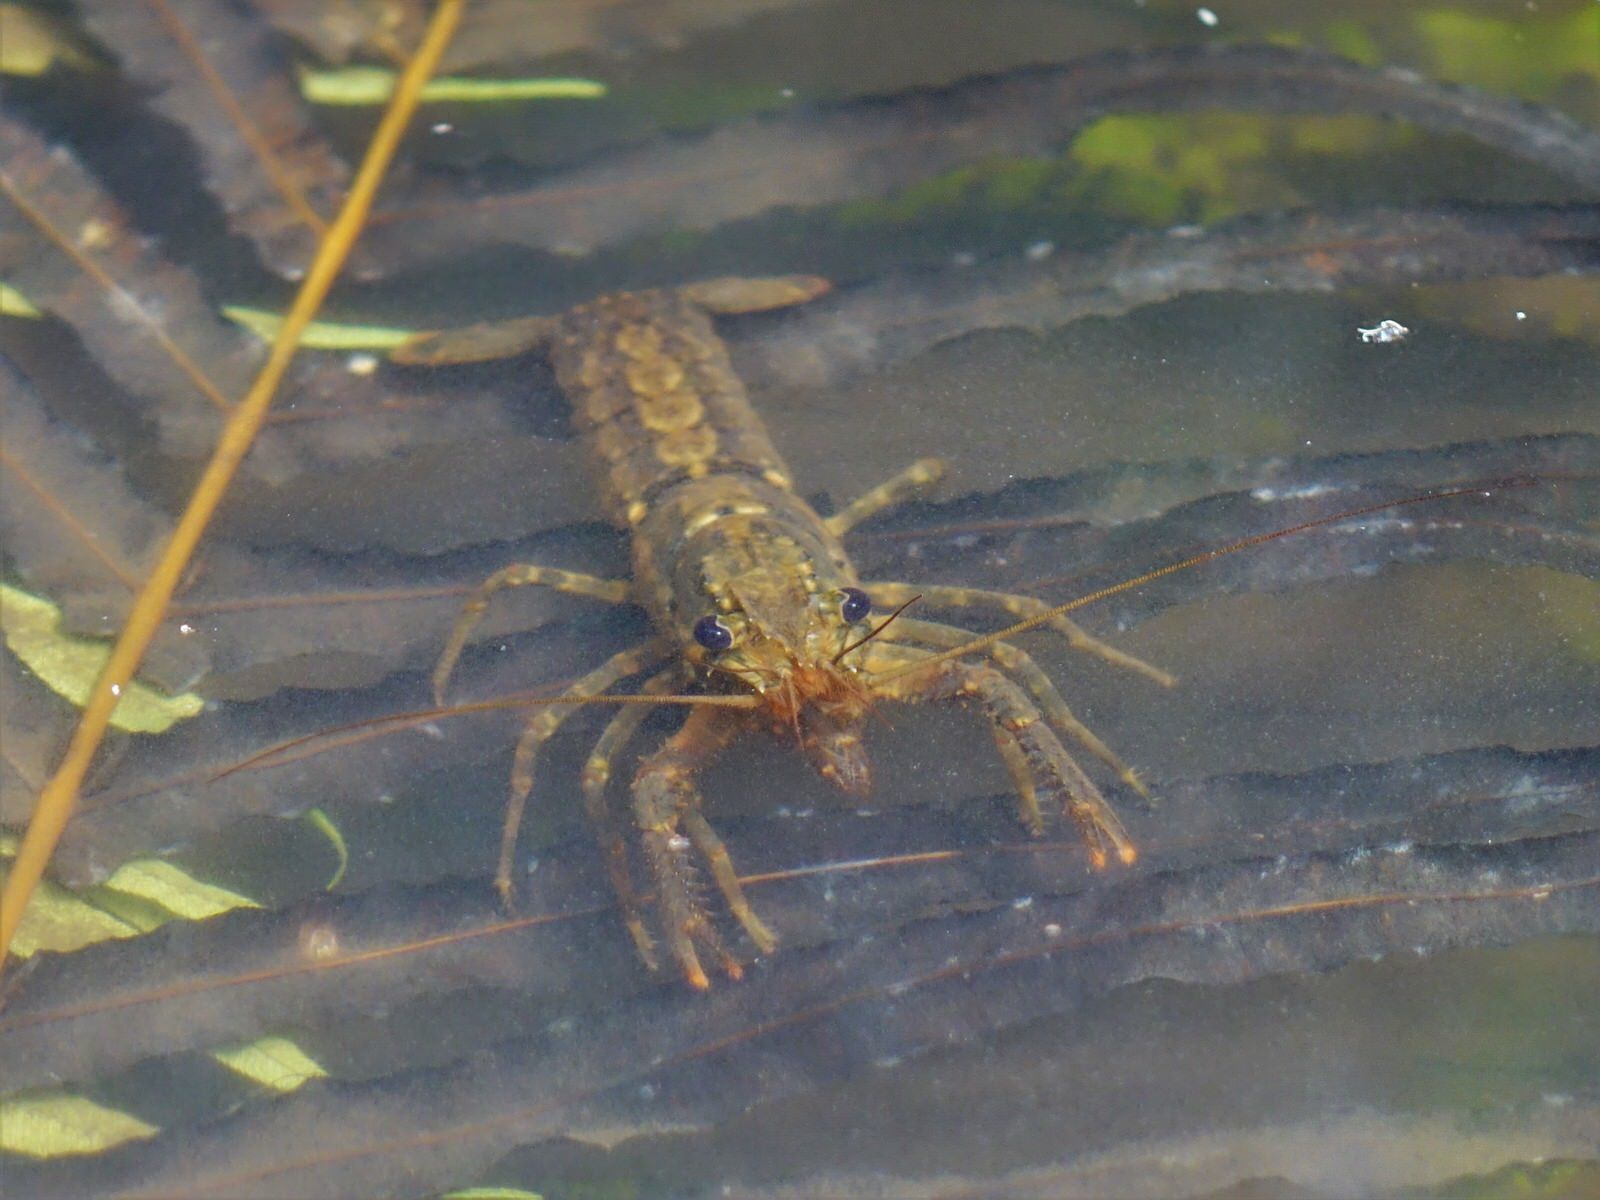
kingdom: Animalia
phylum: Arthropoda
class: Malacostraca
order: Decapoda
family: Parastacidae
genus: Paranephrops
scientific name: Paranephrops planifrons
